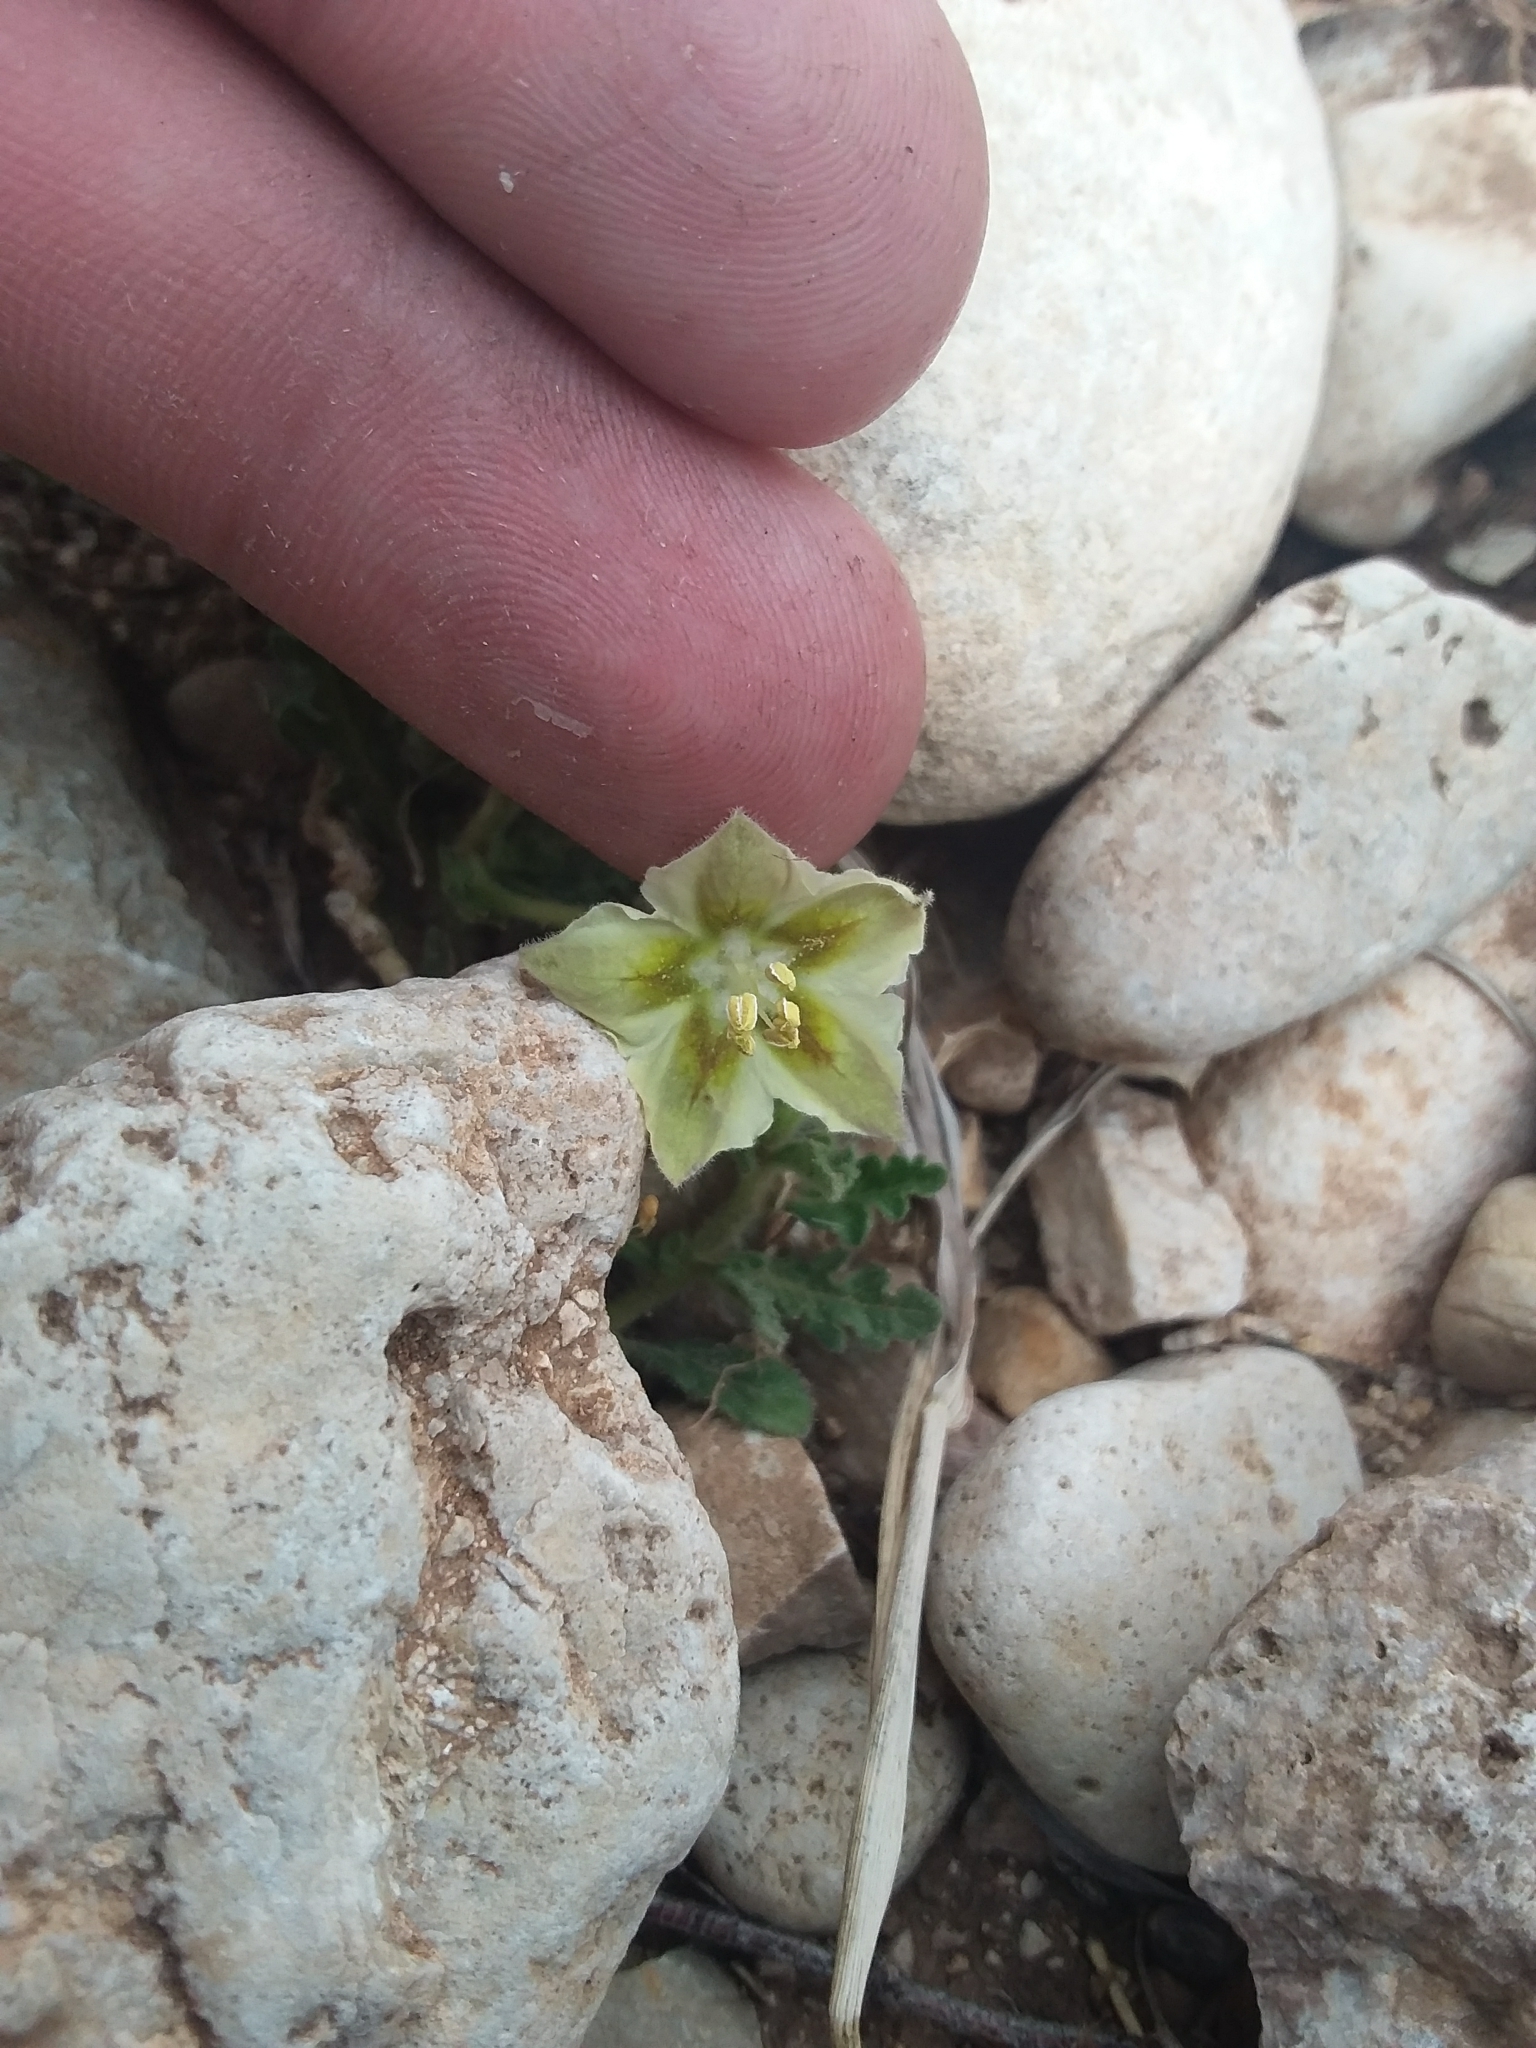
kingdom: Plantae
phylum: Tracheophyta
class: Magnoliopsida
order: Solanales
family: Solanaceae
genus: Chamaesaracha
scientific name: Chamaesaracha coniodes
